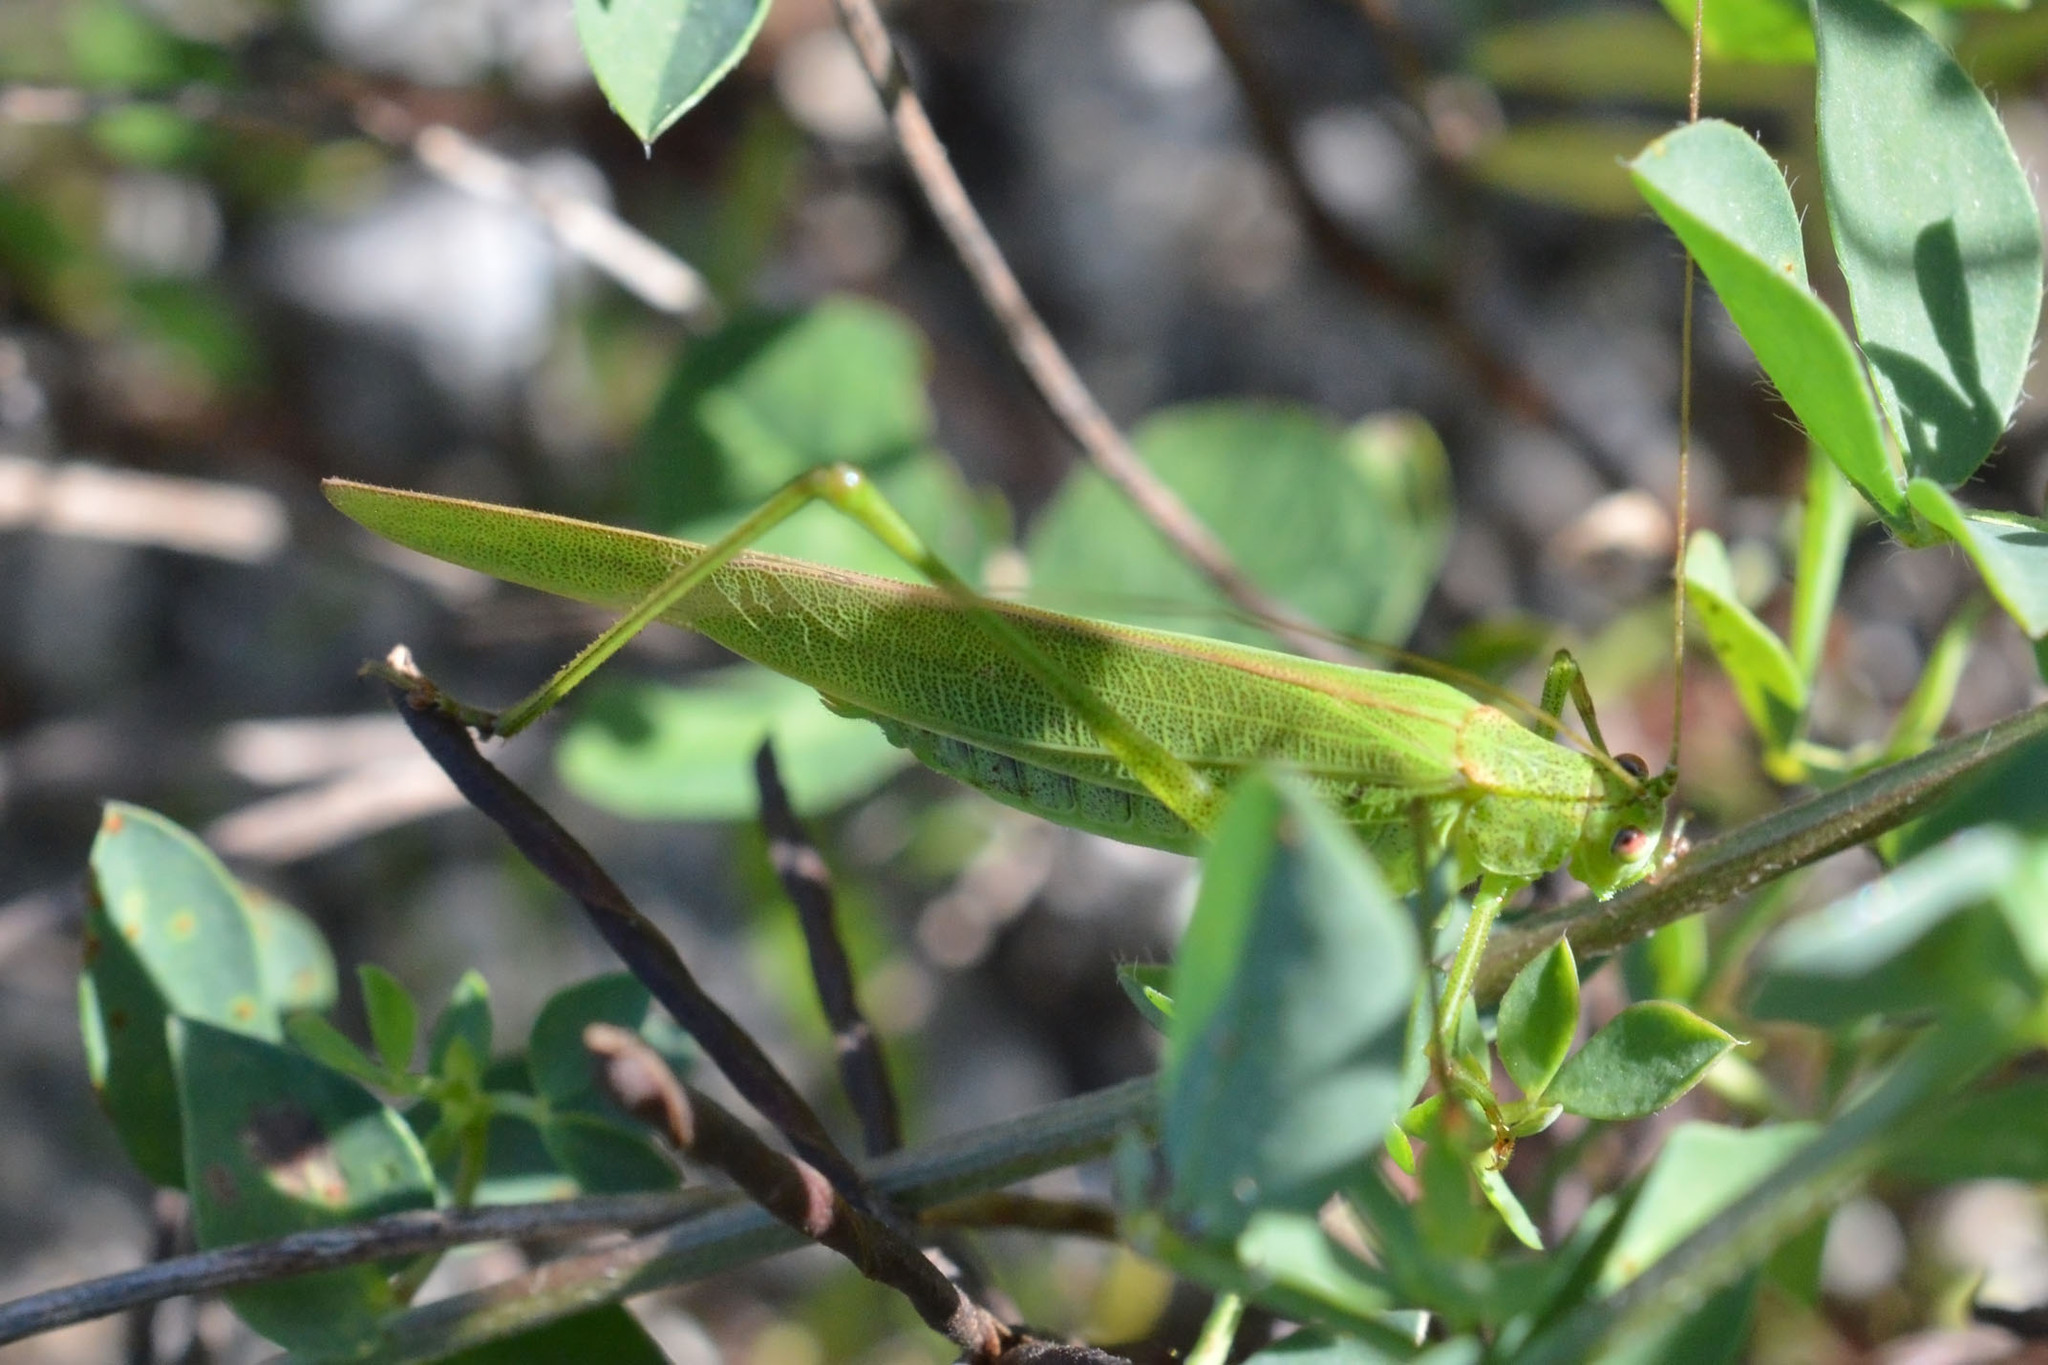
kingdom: Animalia
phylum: Arthropoda
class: Insecta
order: Orthoptera
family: Tettigoniidae
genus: Phaneroptera
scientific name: Phaneroptera falcata
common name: Sickle-bearing bush-cricket
